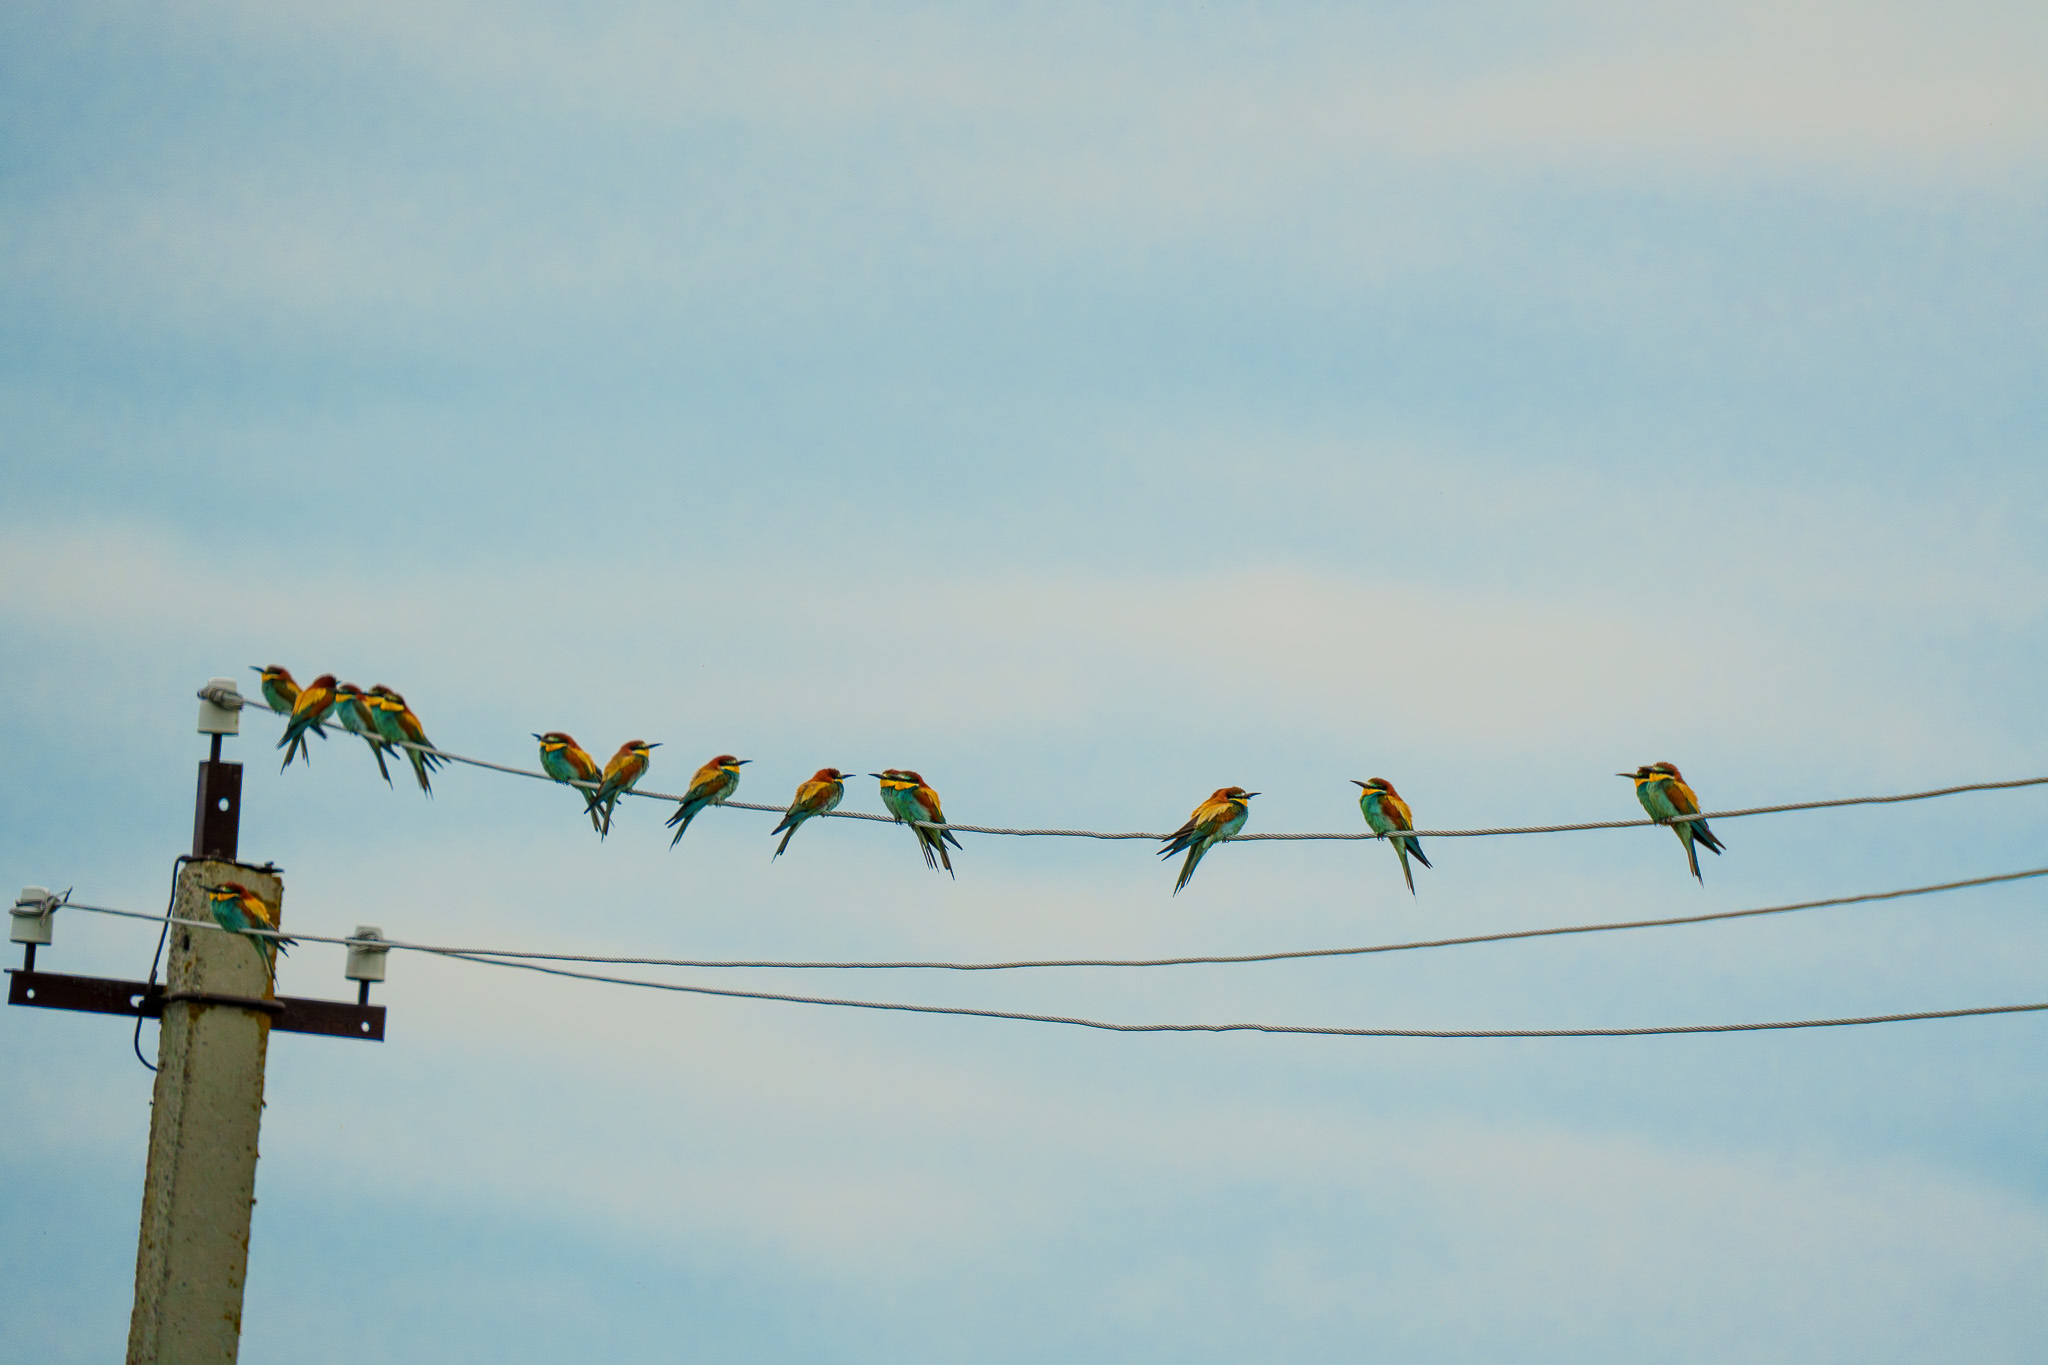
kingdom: Animalia
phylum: Chordata
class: Aves
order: Coraciiformes
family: Meropidae
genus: Merops
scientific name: Merops apiaster
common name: European bee-eater
